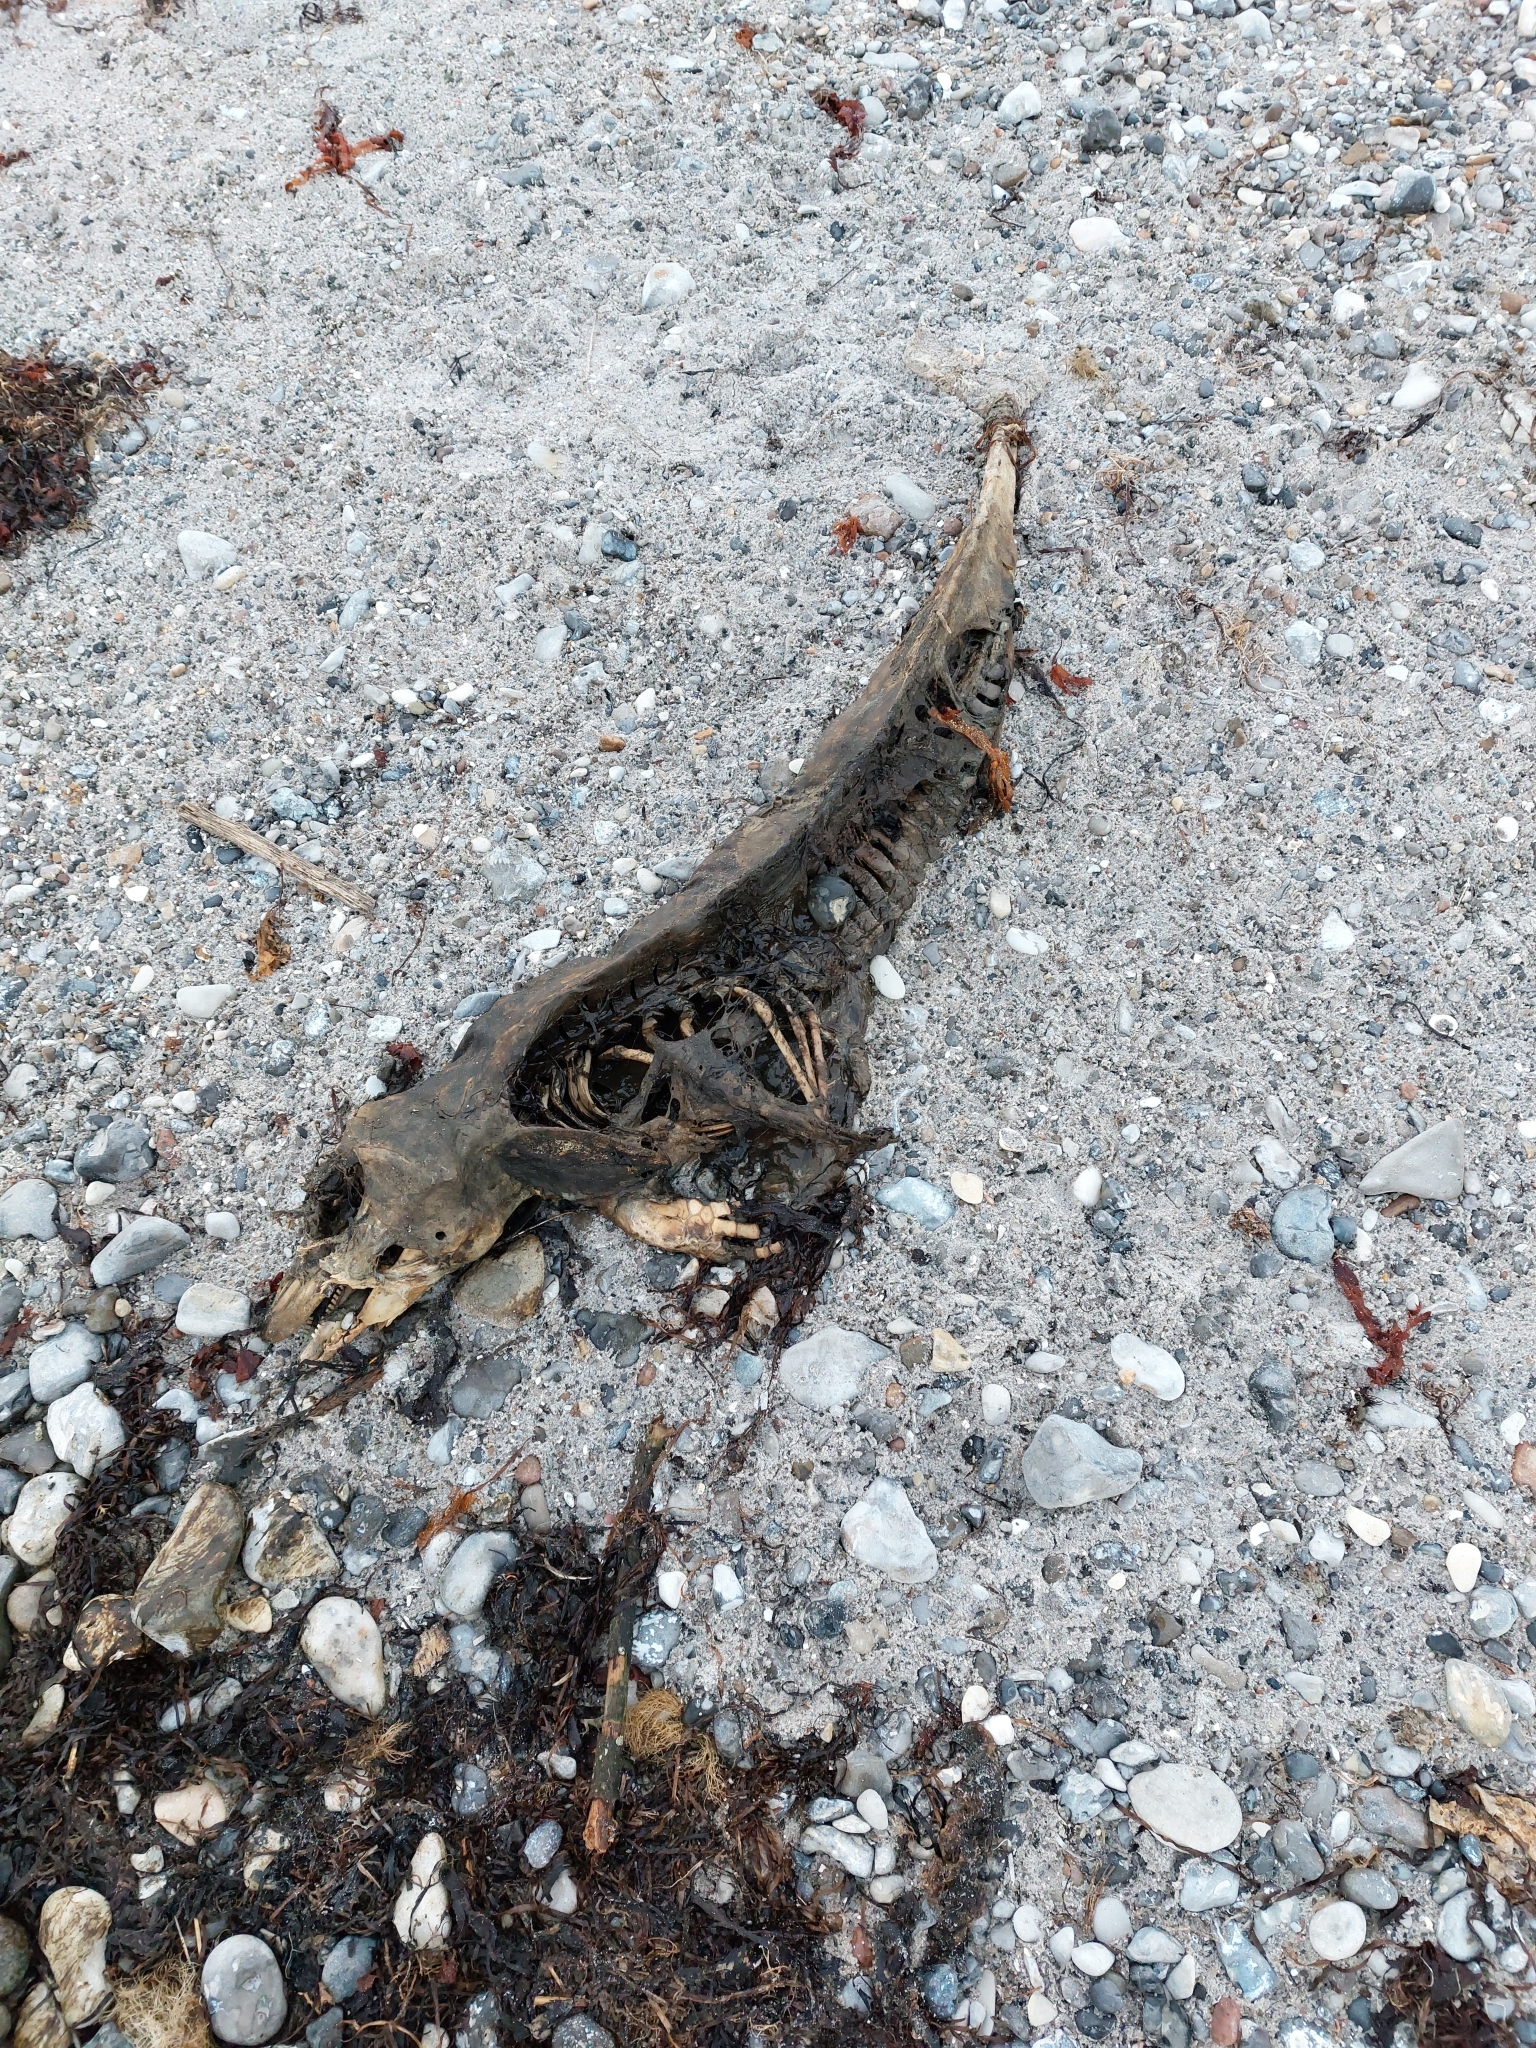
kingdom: Animalia
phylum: Chordata
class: Mammalia
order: Cetacea
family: Phocoenidae
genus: Phocoena
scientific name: Phocoena phocoena
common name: Harbor porpoise
